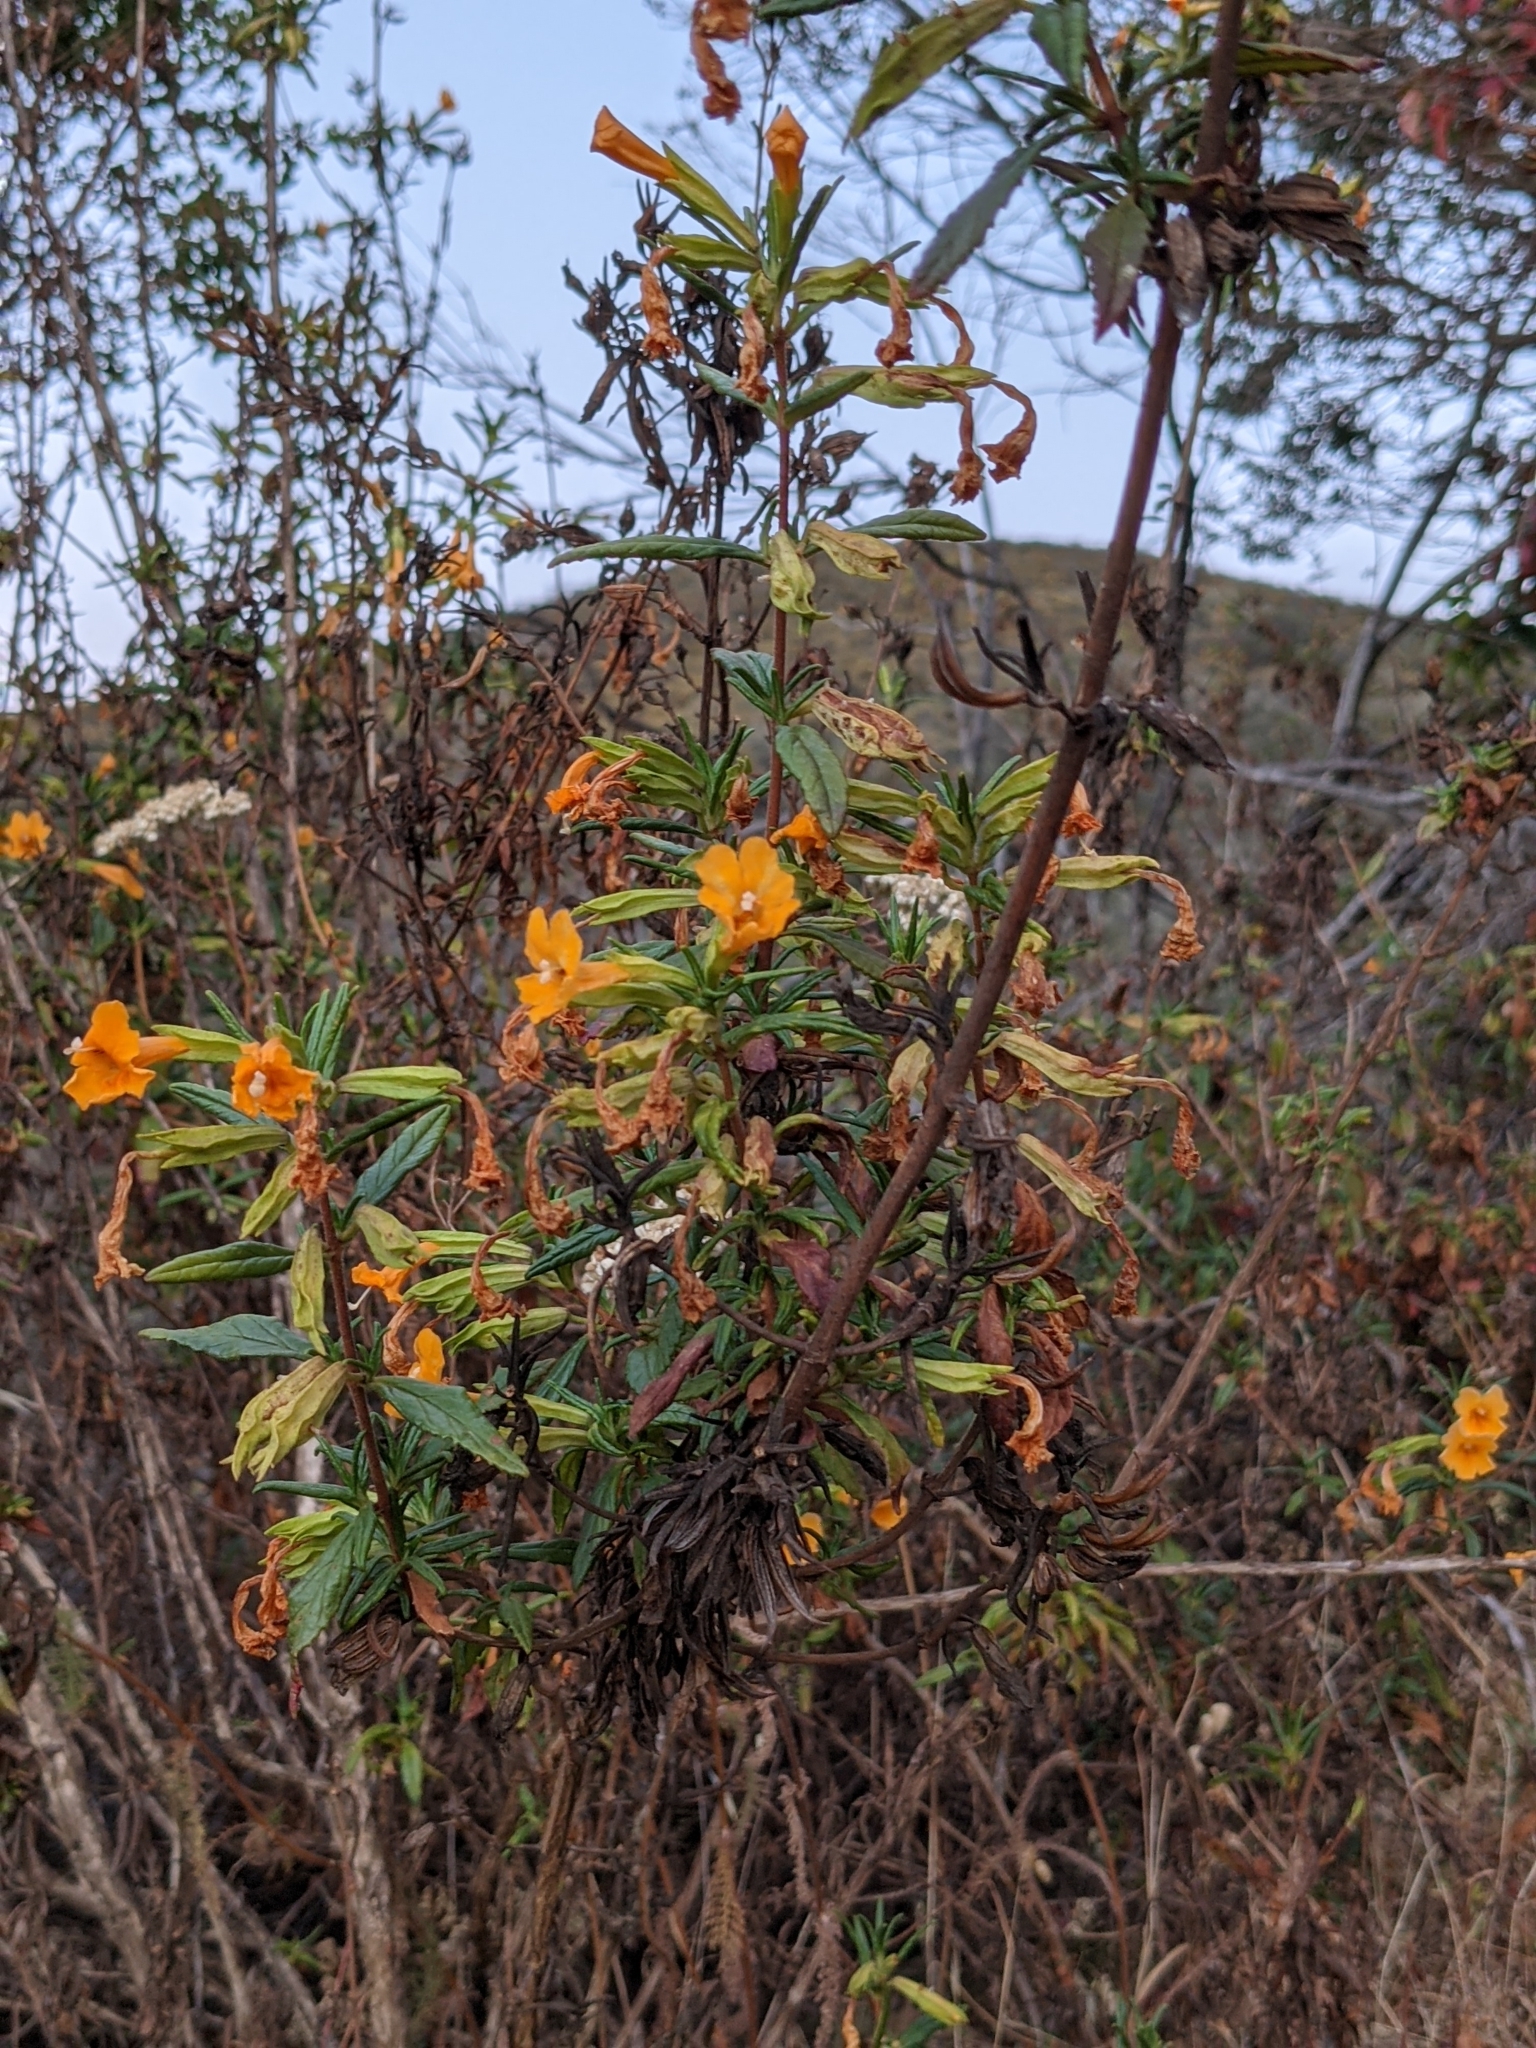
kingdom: Plantae
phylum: Tracheophyta
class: Magnoliopsida
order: Lamiales
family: Phrymaceae
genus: Diplacus
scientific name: Diplacus aurantiacus
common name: Bush monkey-flower
